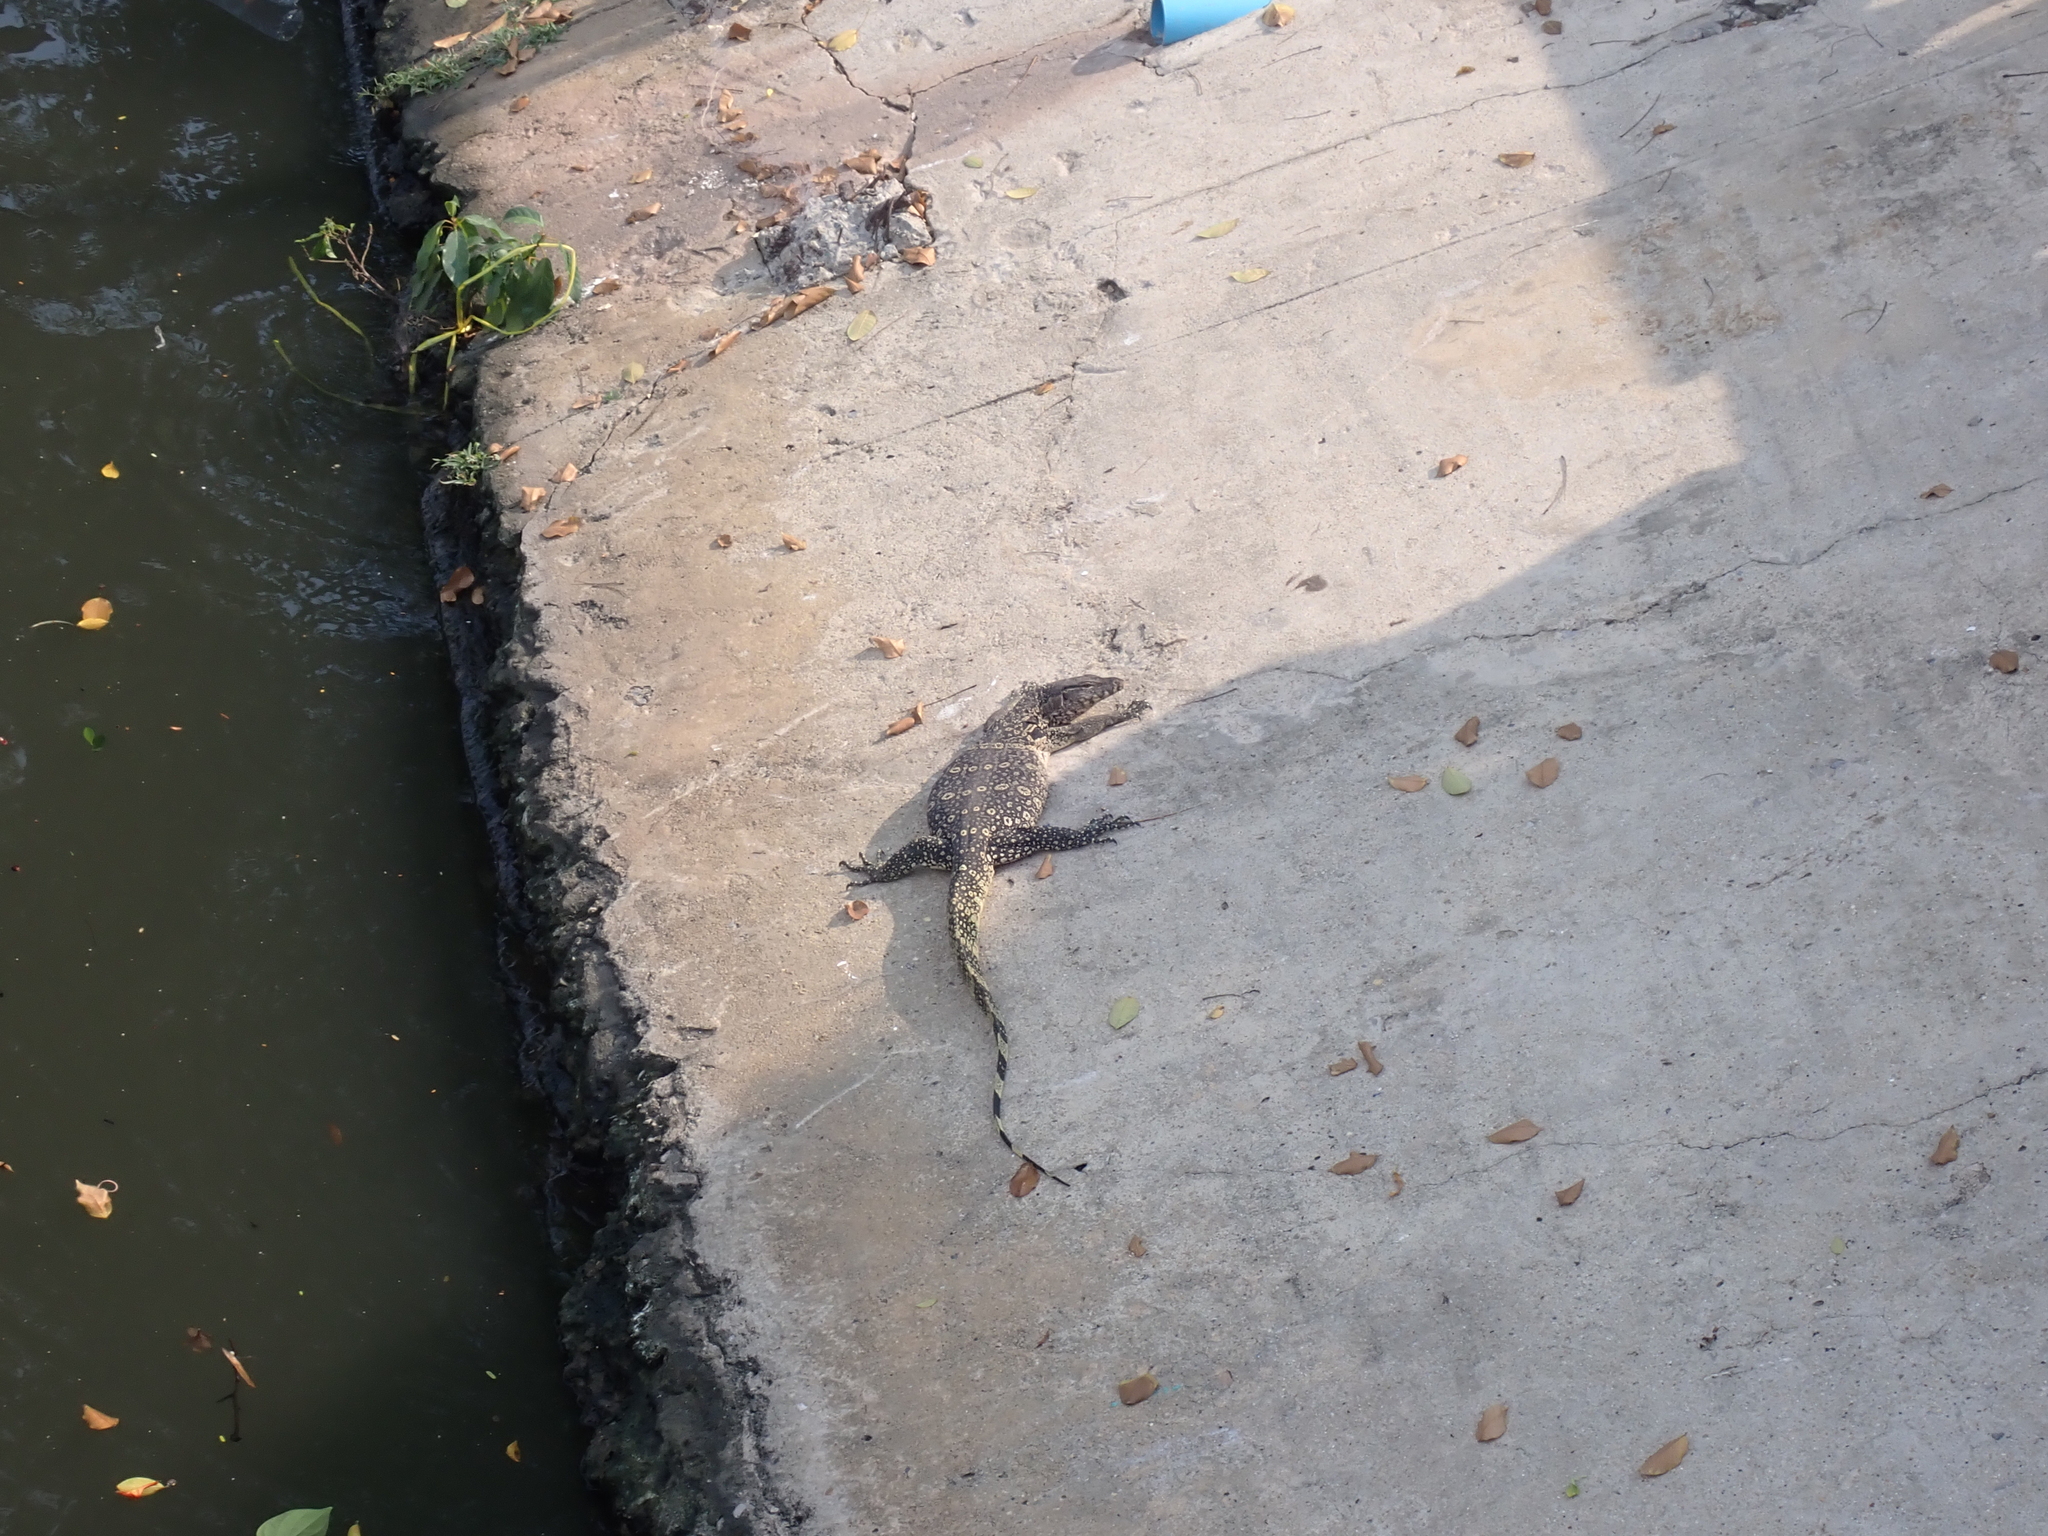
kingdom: Animalia
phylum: Chordata
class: Squamata
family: Varanidae
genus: Varanus
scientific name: Varanus salvator
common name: Common water monitor
